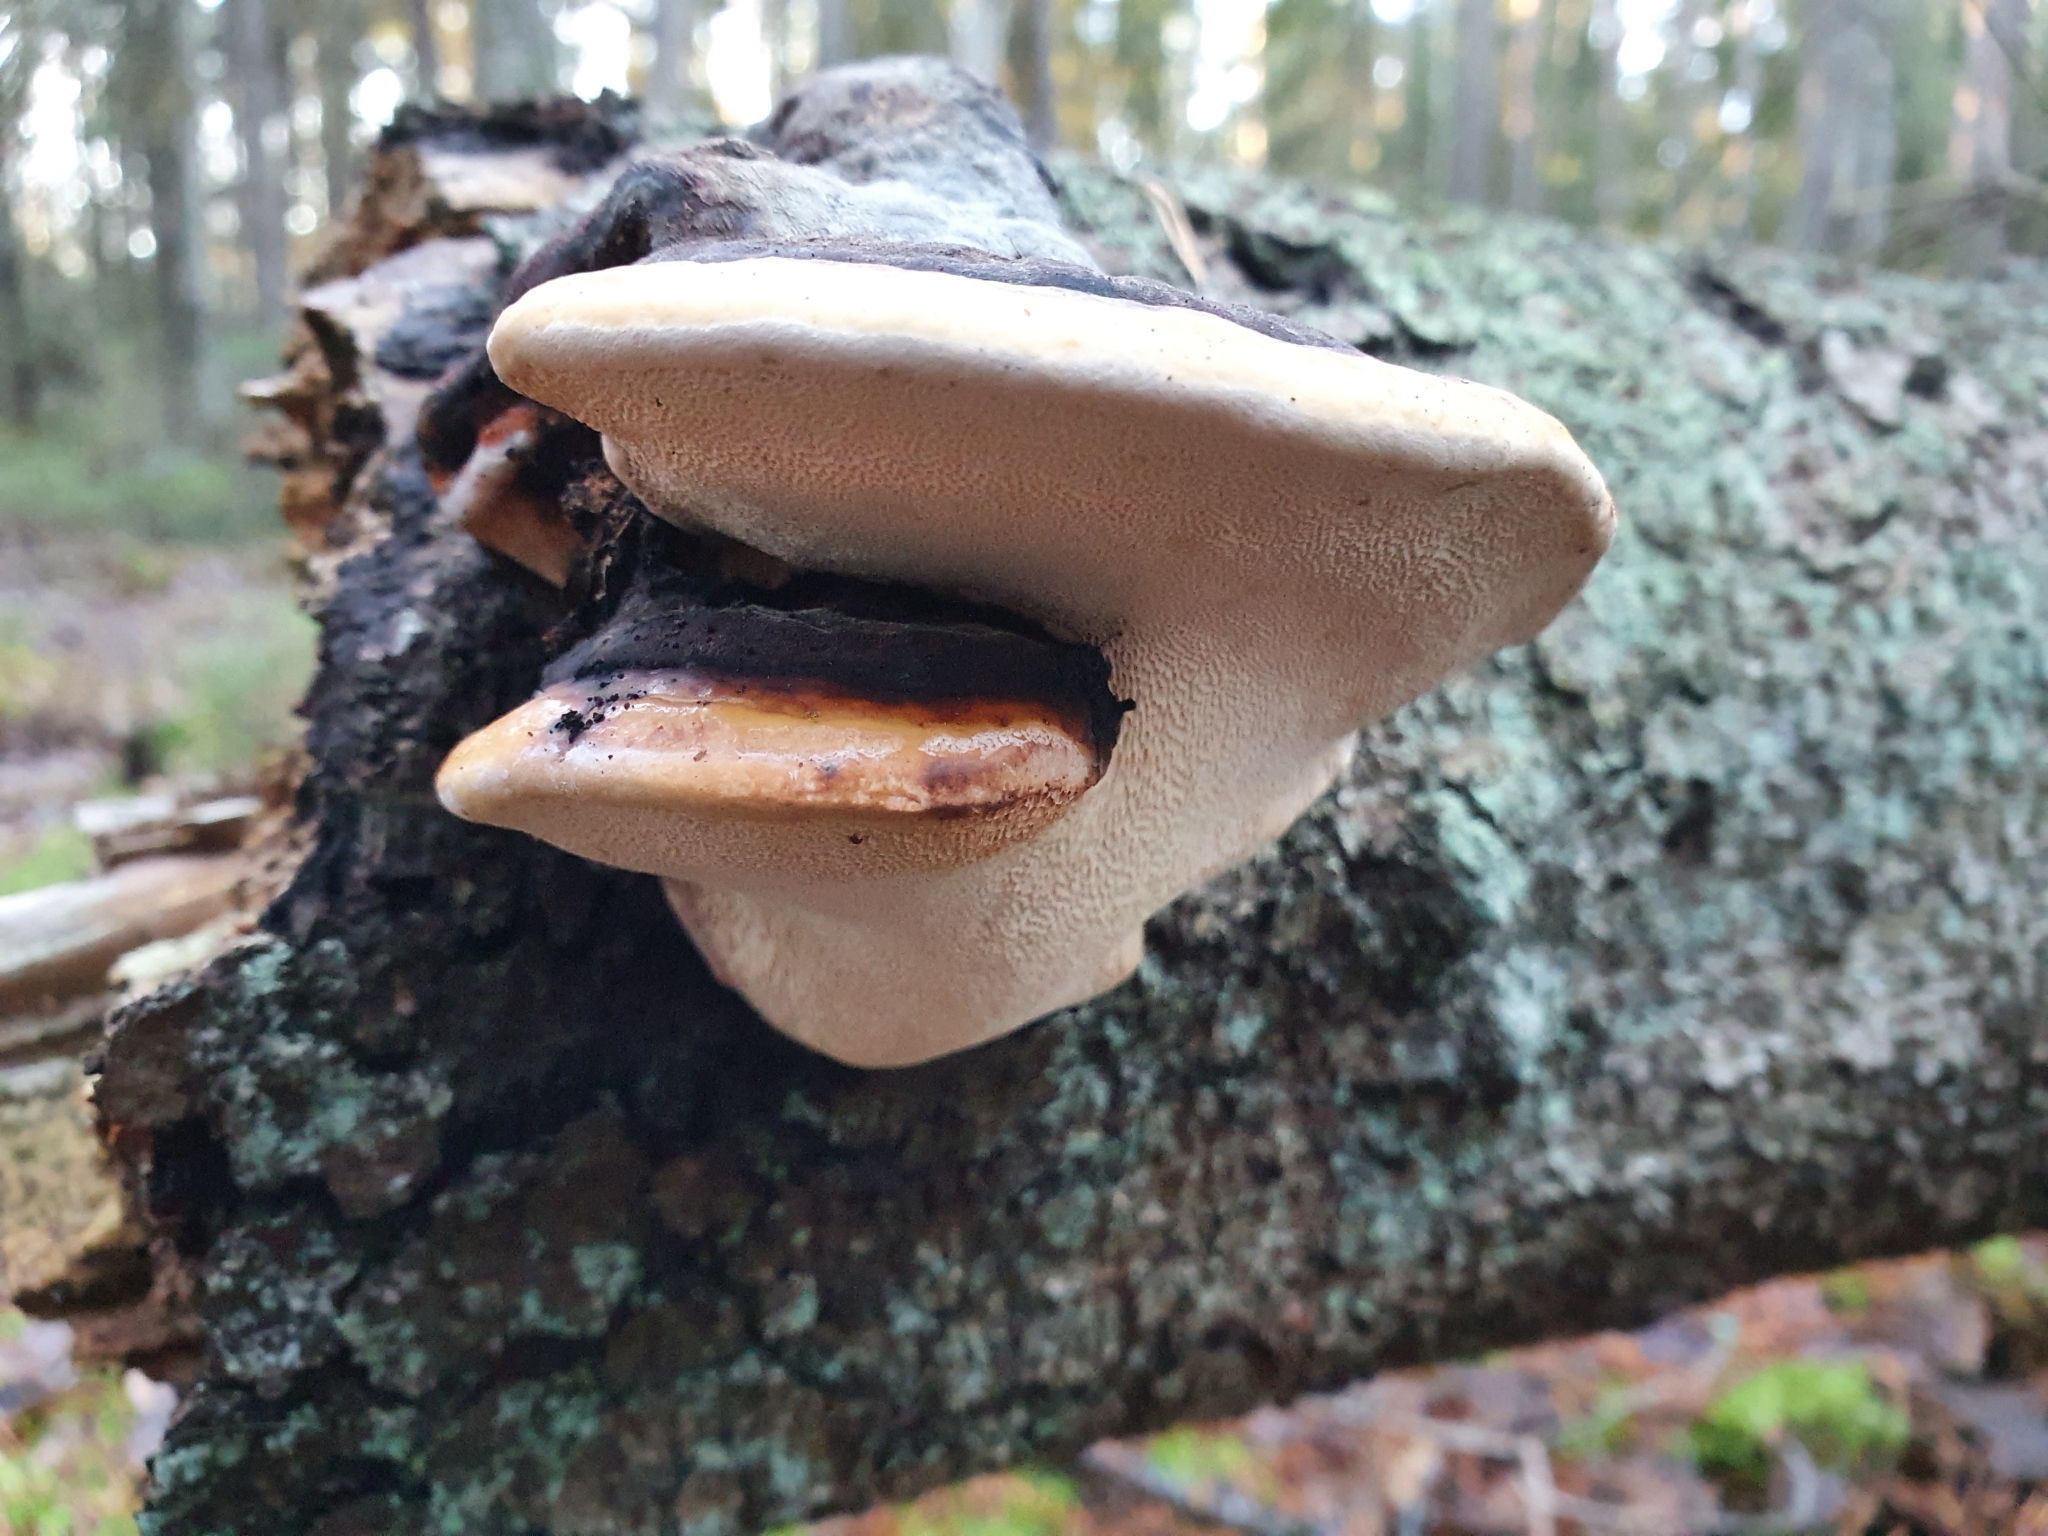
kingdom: Fungi
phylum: Basidiomycota
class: Agaricomycetes
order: Polyporales
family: Fomitopsidaceae
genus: Fomitopsis
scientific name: Fomitopsis pinicola
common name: Red-belted bracket
